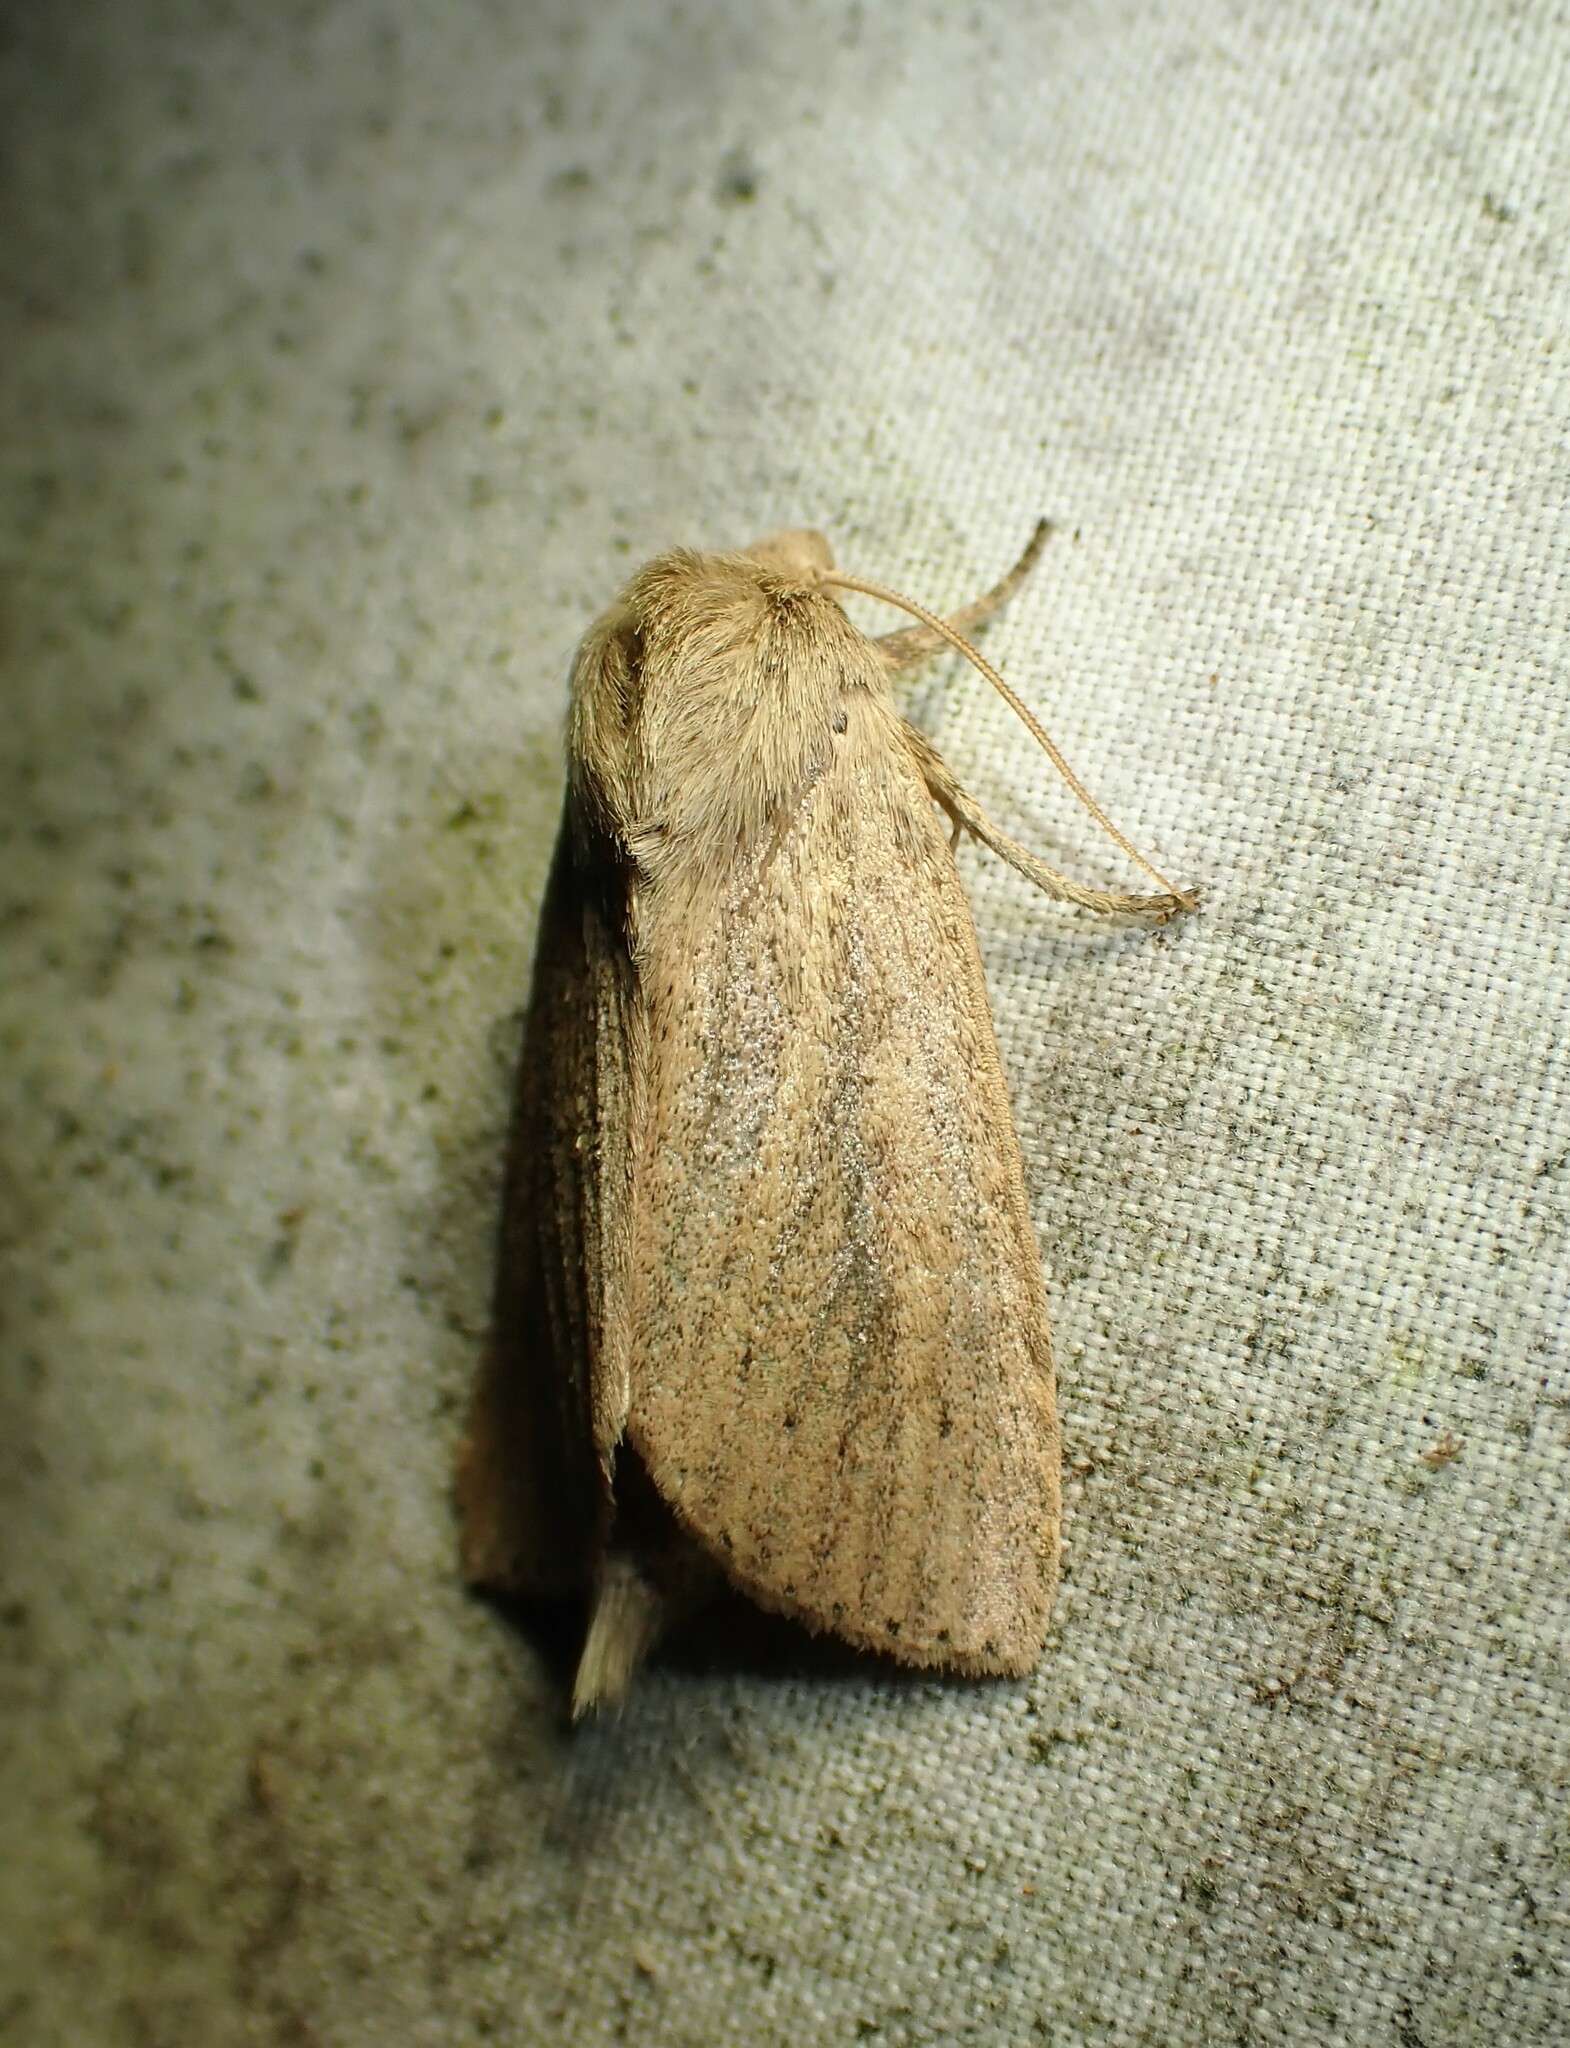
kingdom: Animalia
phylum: Arthropoda
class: Insecta
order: Lepidoptera
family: Noctuidae
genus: Globia
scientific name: Globia oblonga
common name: Oblong sedge borer moth
